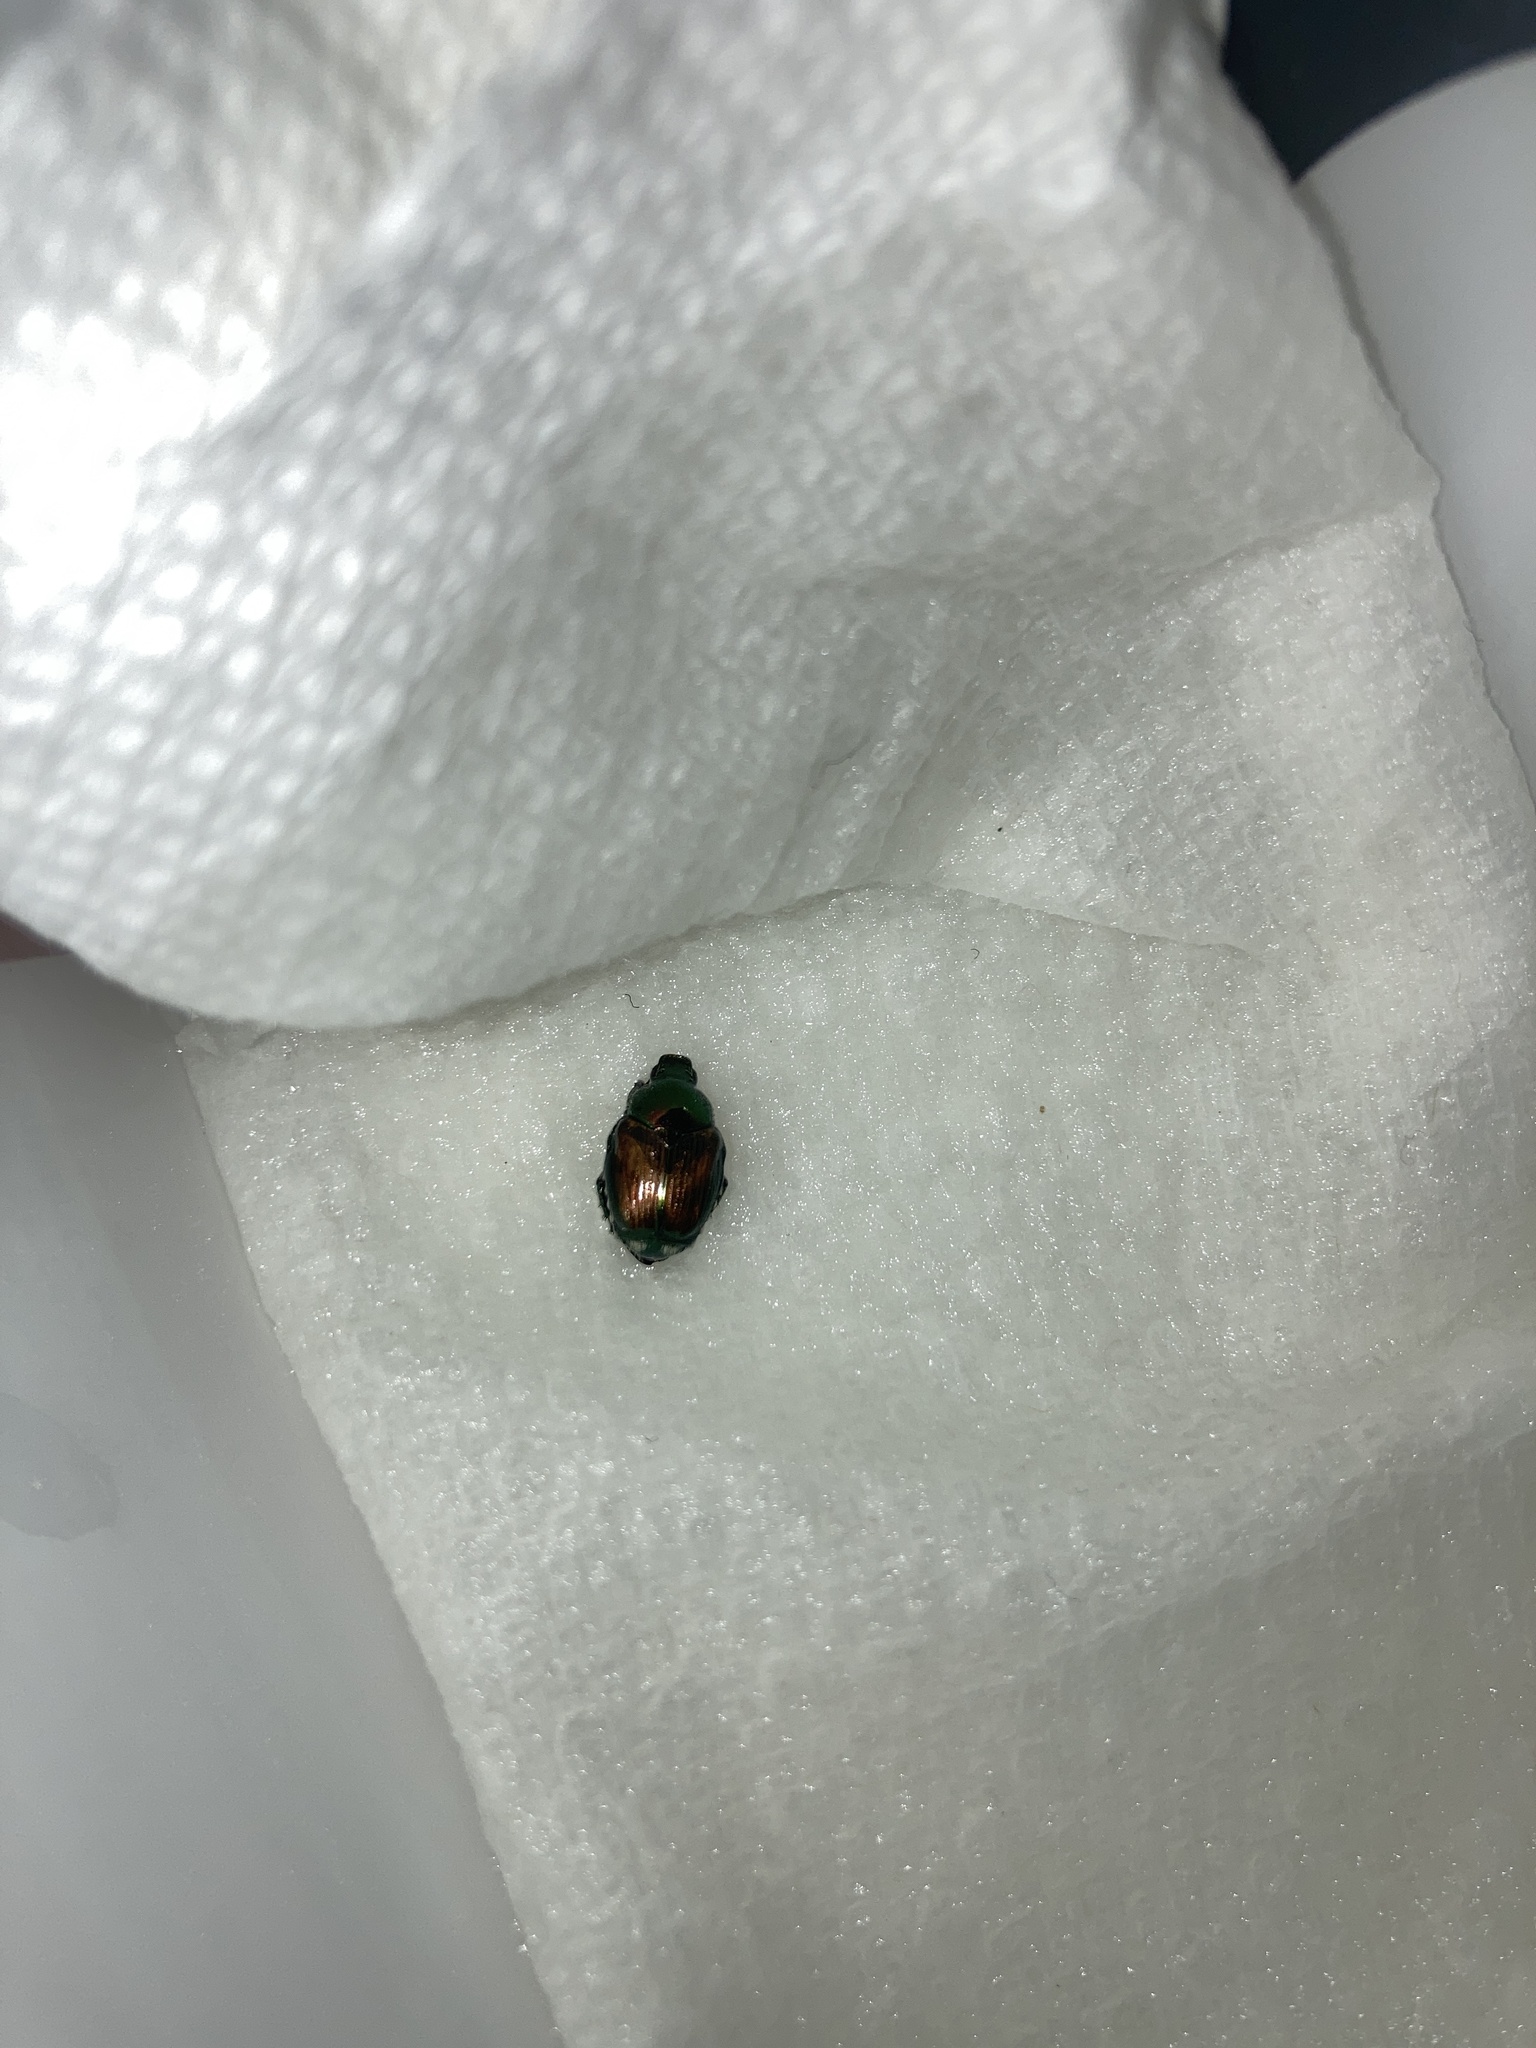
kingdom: Animalia
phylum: Arthropoda
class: Insecta
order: Coleoptera
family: Scarabaeidae
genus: Popillia
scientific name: Popillia japonica
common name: Japanese beetle
